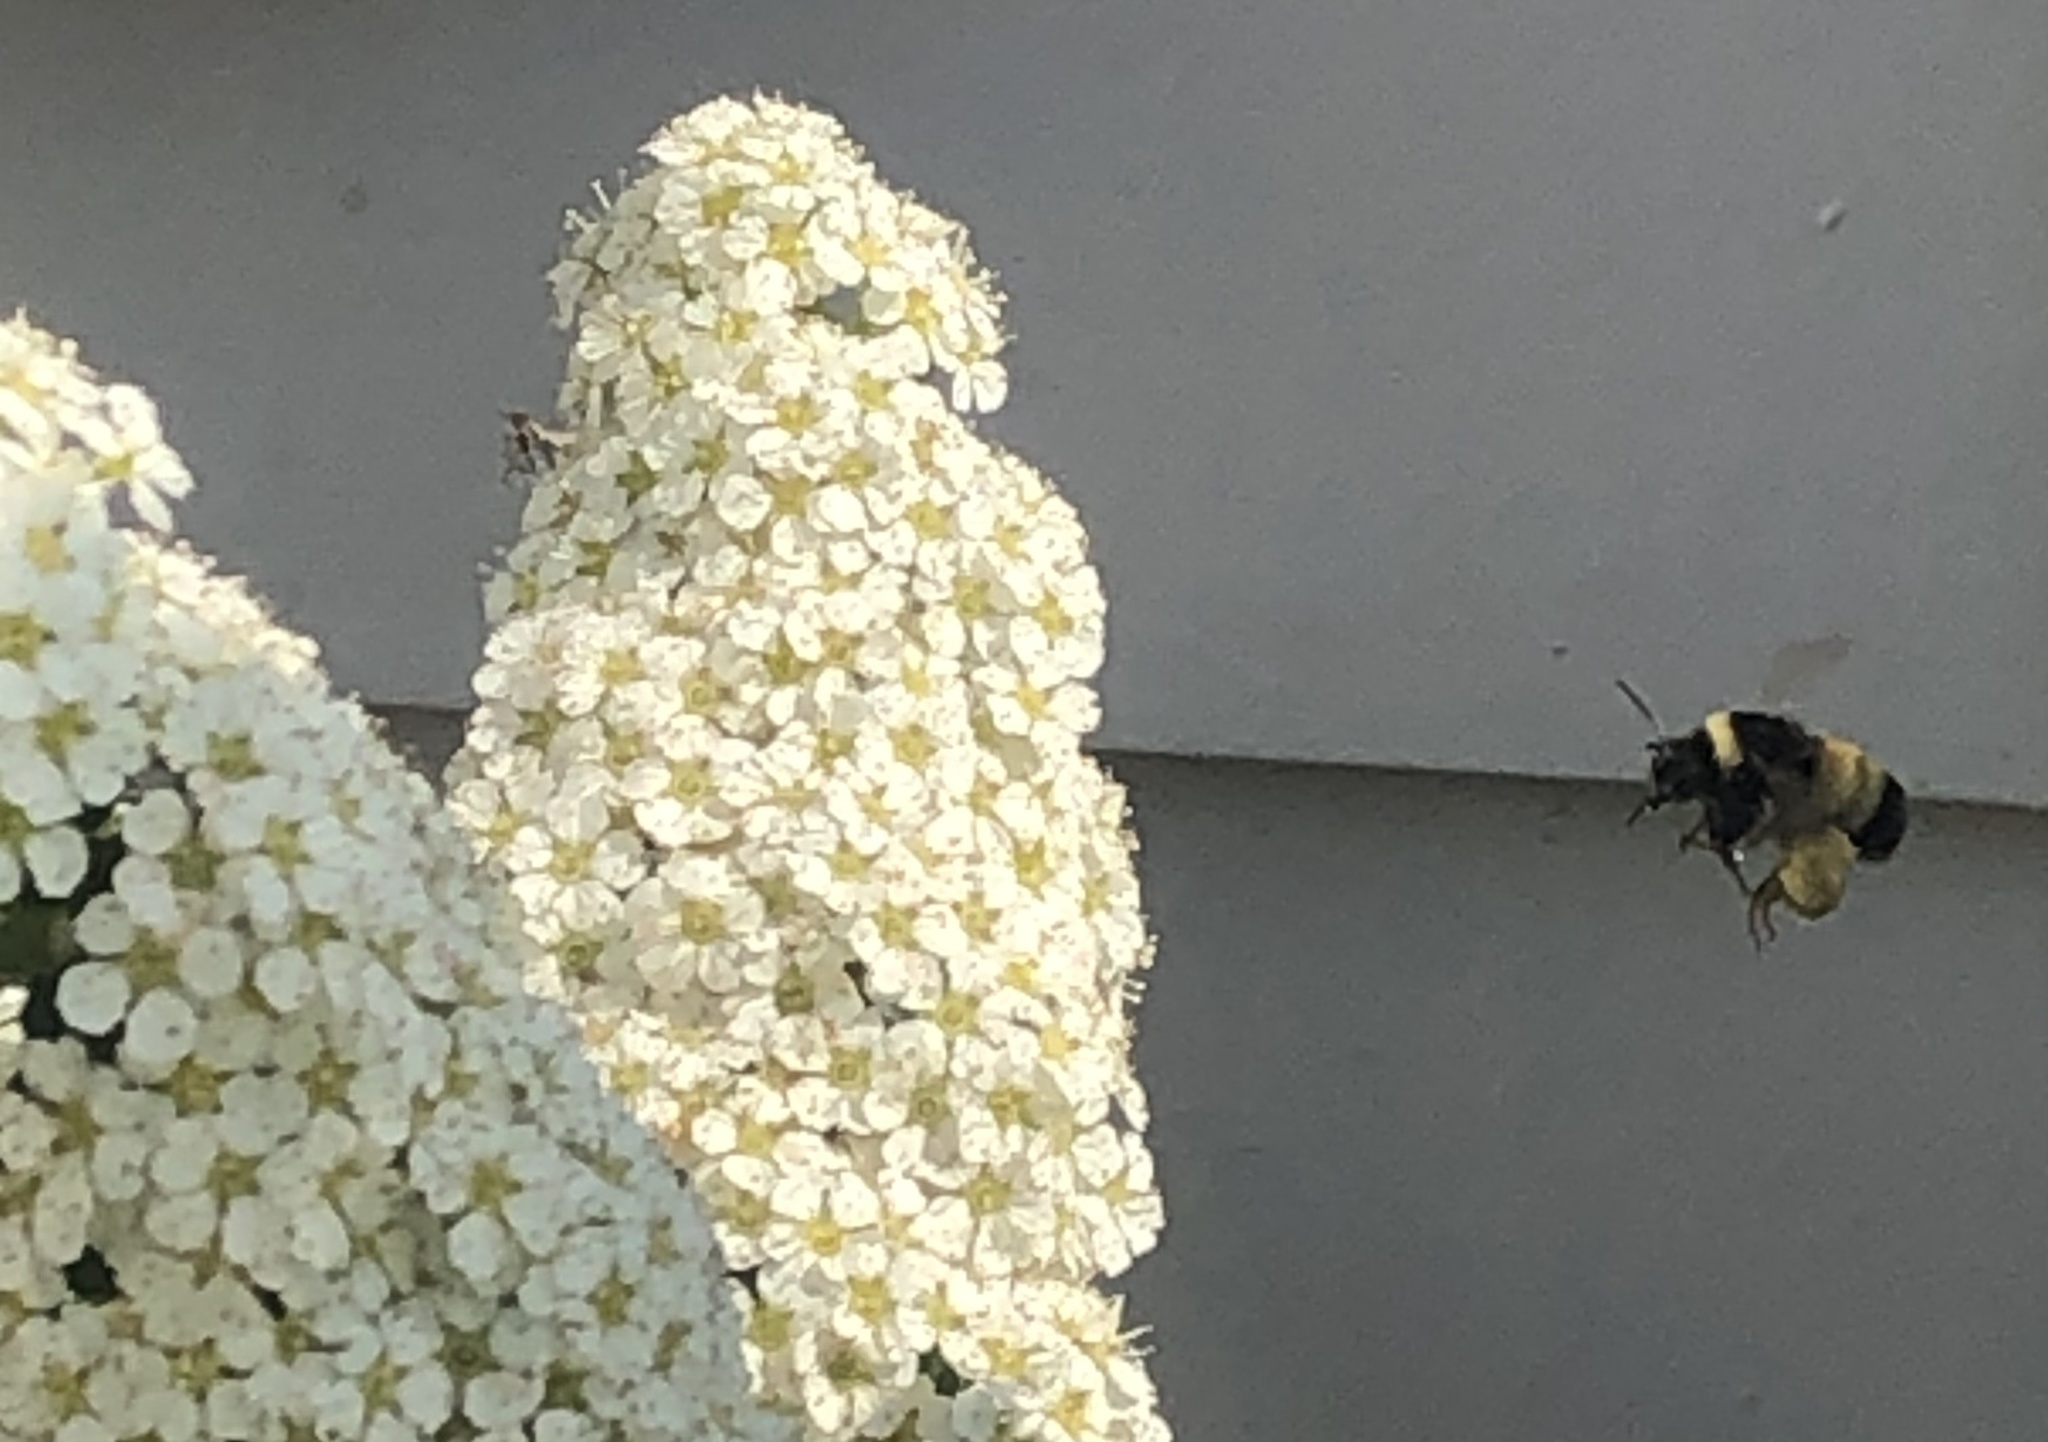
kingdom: Animalia
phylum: Arthropoda
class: Insecta
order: Hymenoptera
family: Apidae
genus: Bombus
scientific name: Bombus terricola
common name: Yellow-banded bumble bee
